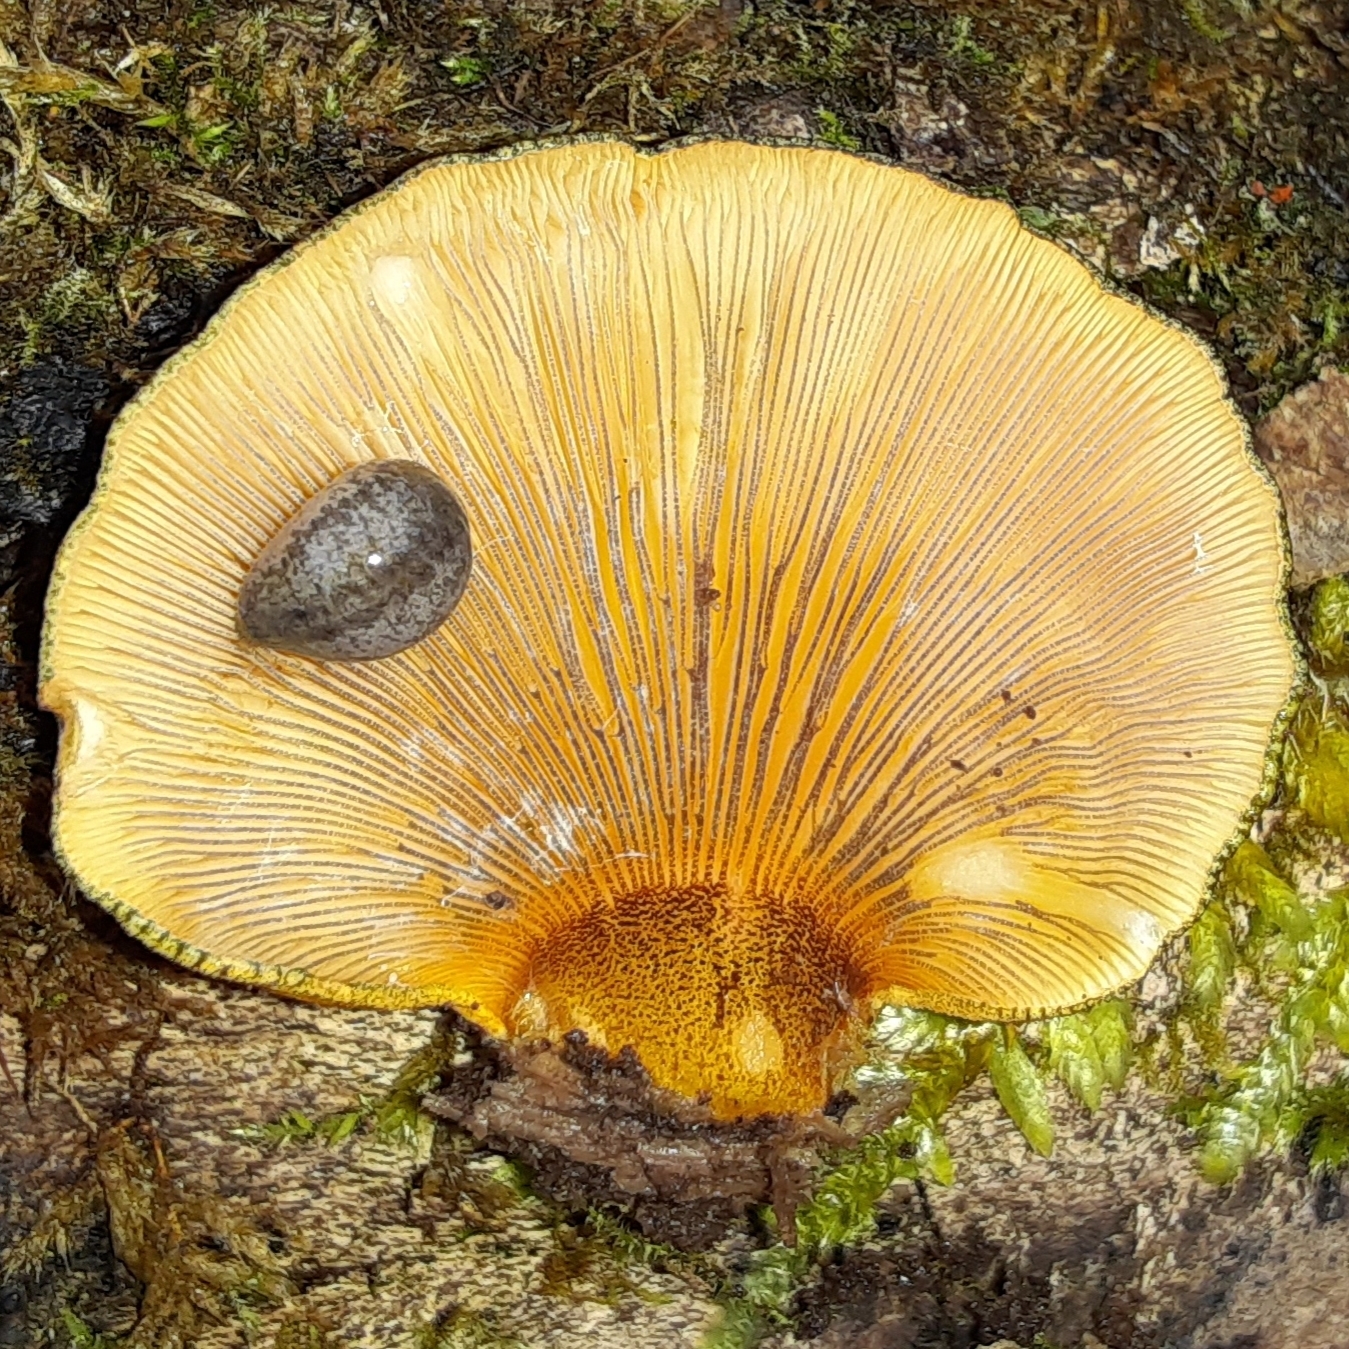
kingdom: Fungi
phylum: Basidiomycota
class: Agaricomycetes
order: Agaricales
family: Sarcomyxaceae
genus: Sarcomyxa
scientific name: Sarcomyxa serotina
